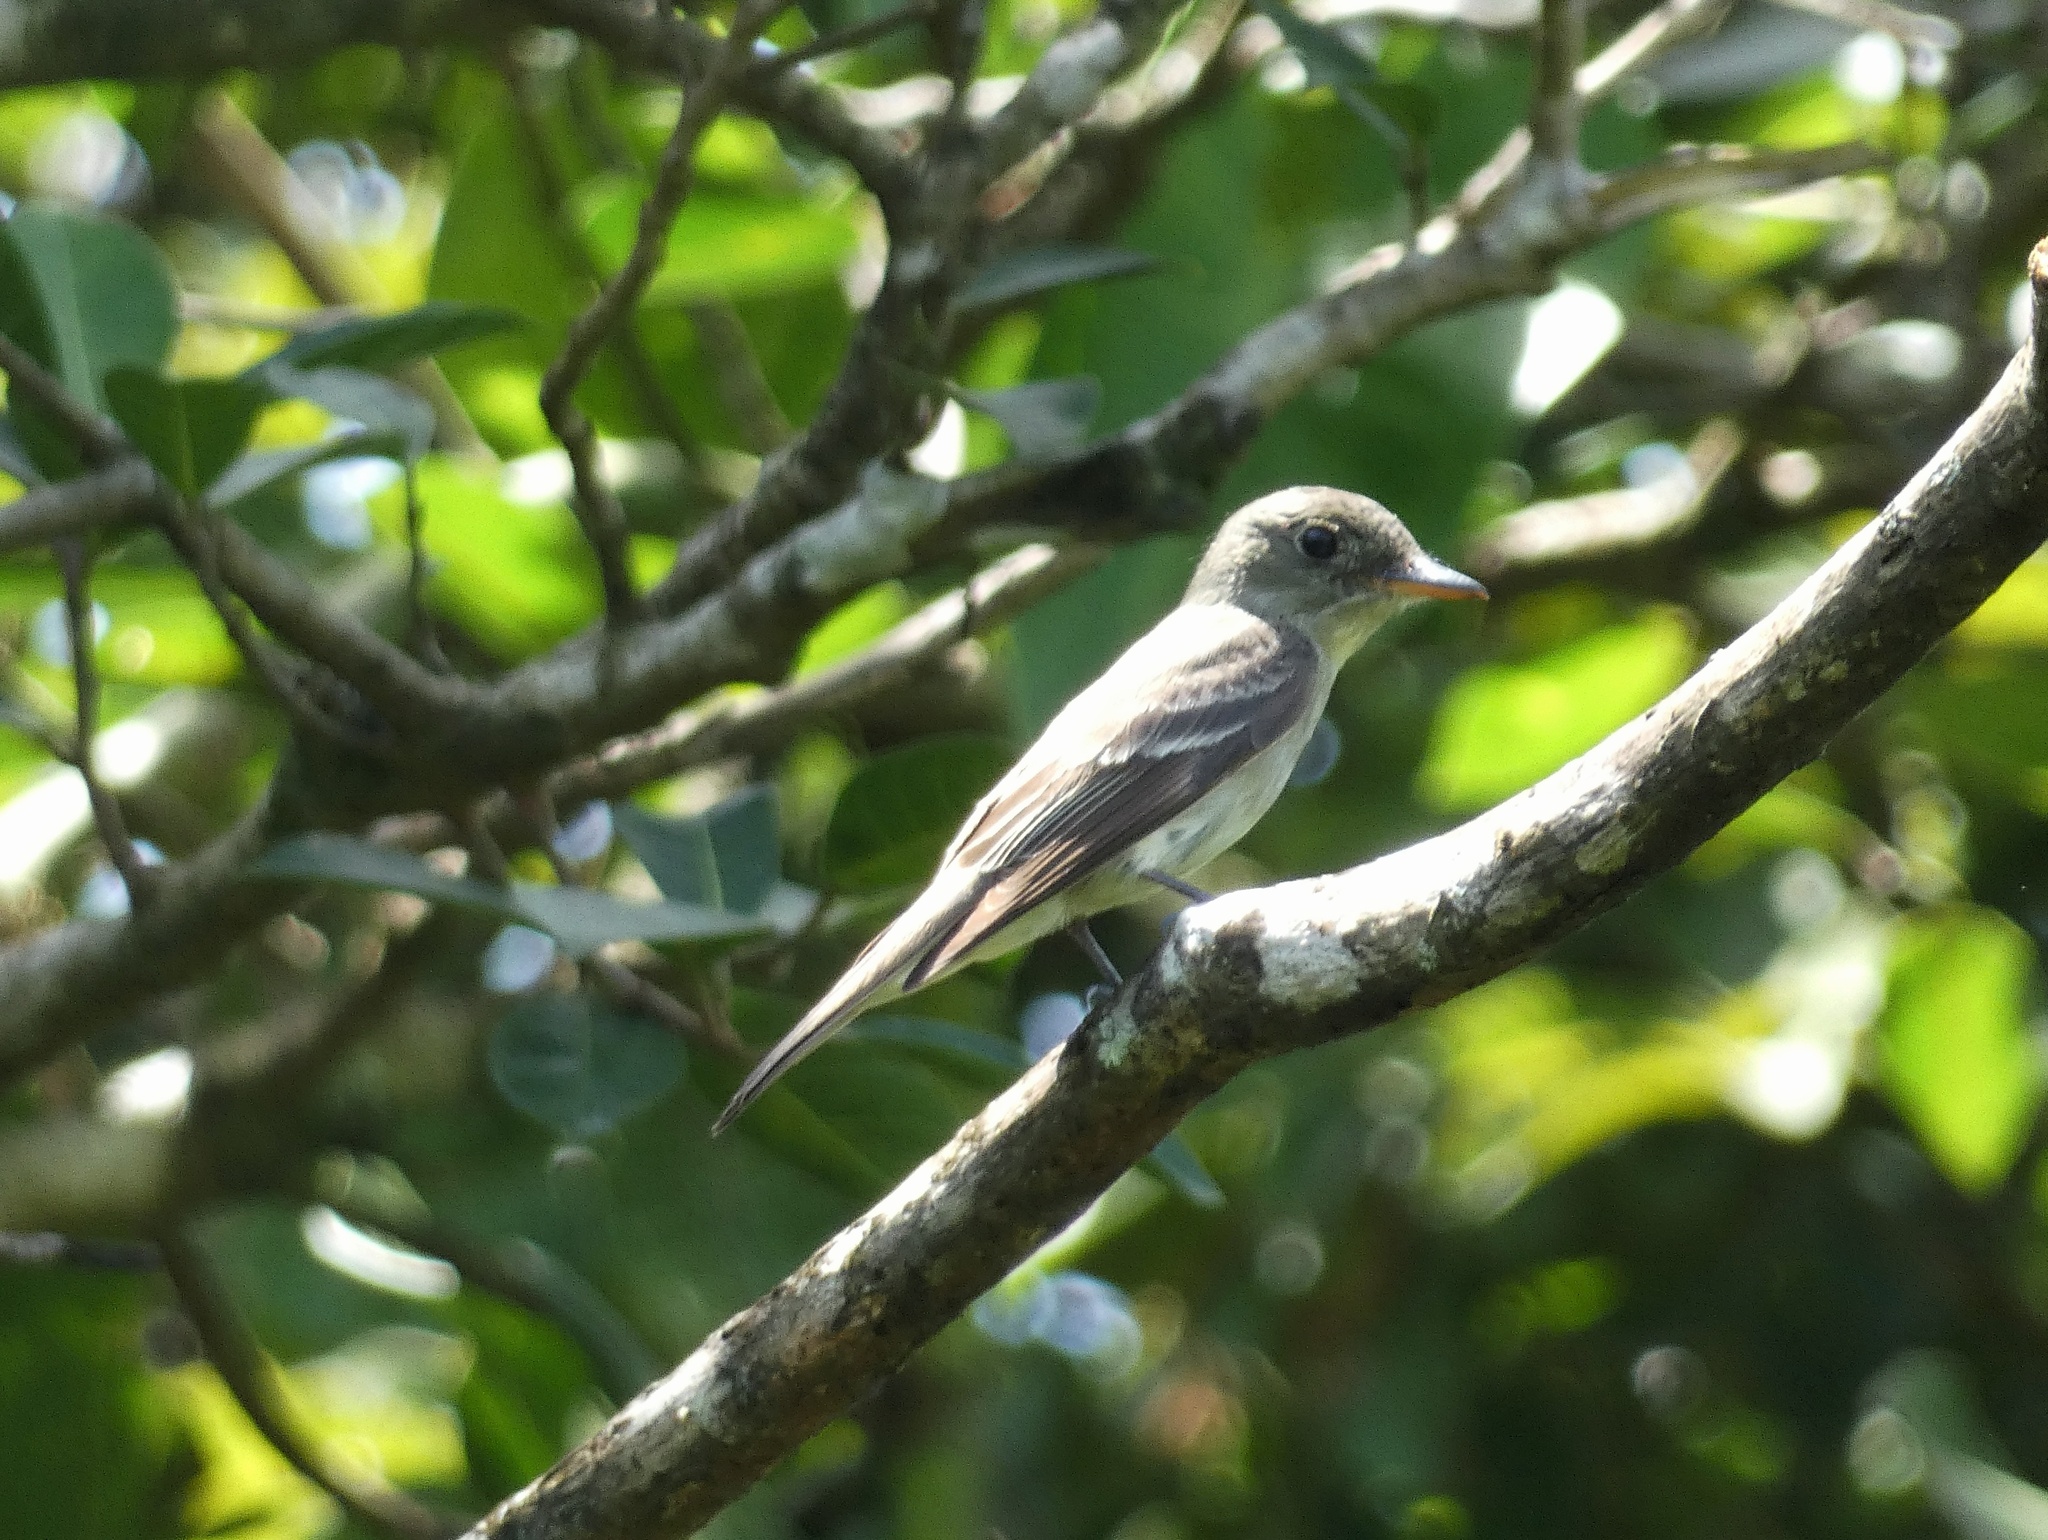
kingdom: Animalia
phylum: Chordata
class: Aves
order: Passeriformes
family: Tyrannidae
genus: Contopus
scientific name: Contopus virens
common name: Eastern wood-pewee
